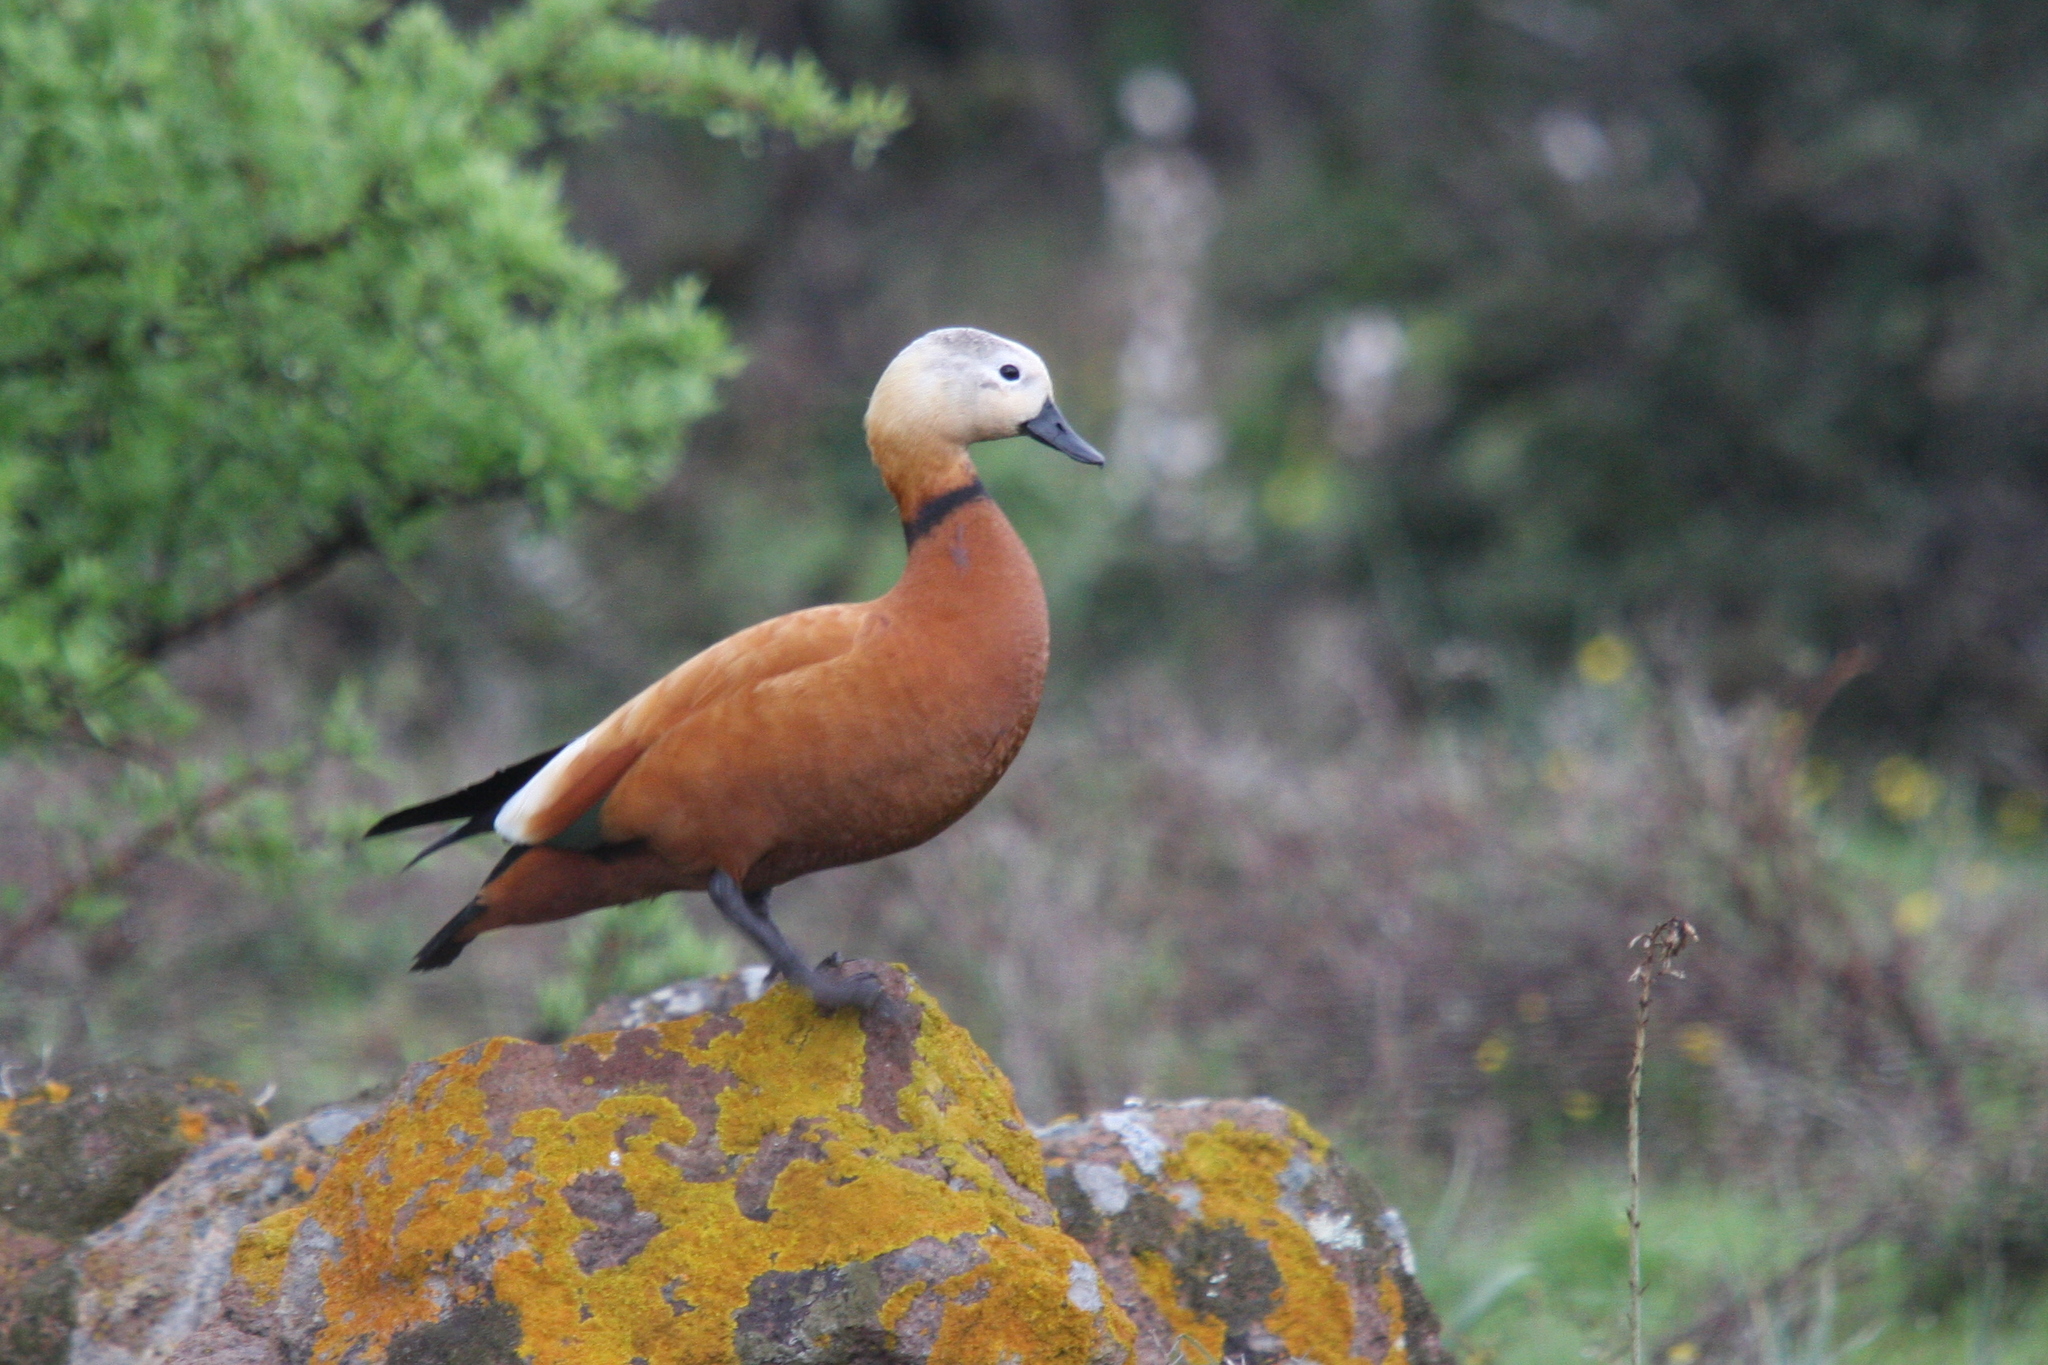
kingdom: Animalia
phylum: Chordata
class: Aves
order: Anseriformes
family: Anatidae
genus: Tadorna
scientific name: Tadorna ferruginea
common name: Ruddy shelduck
